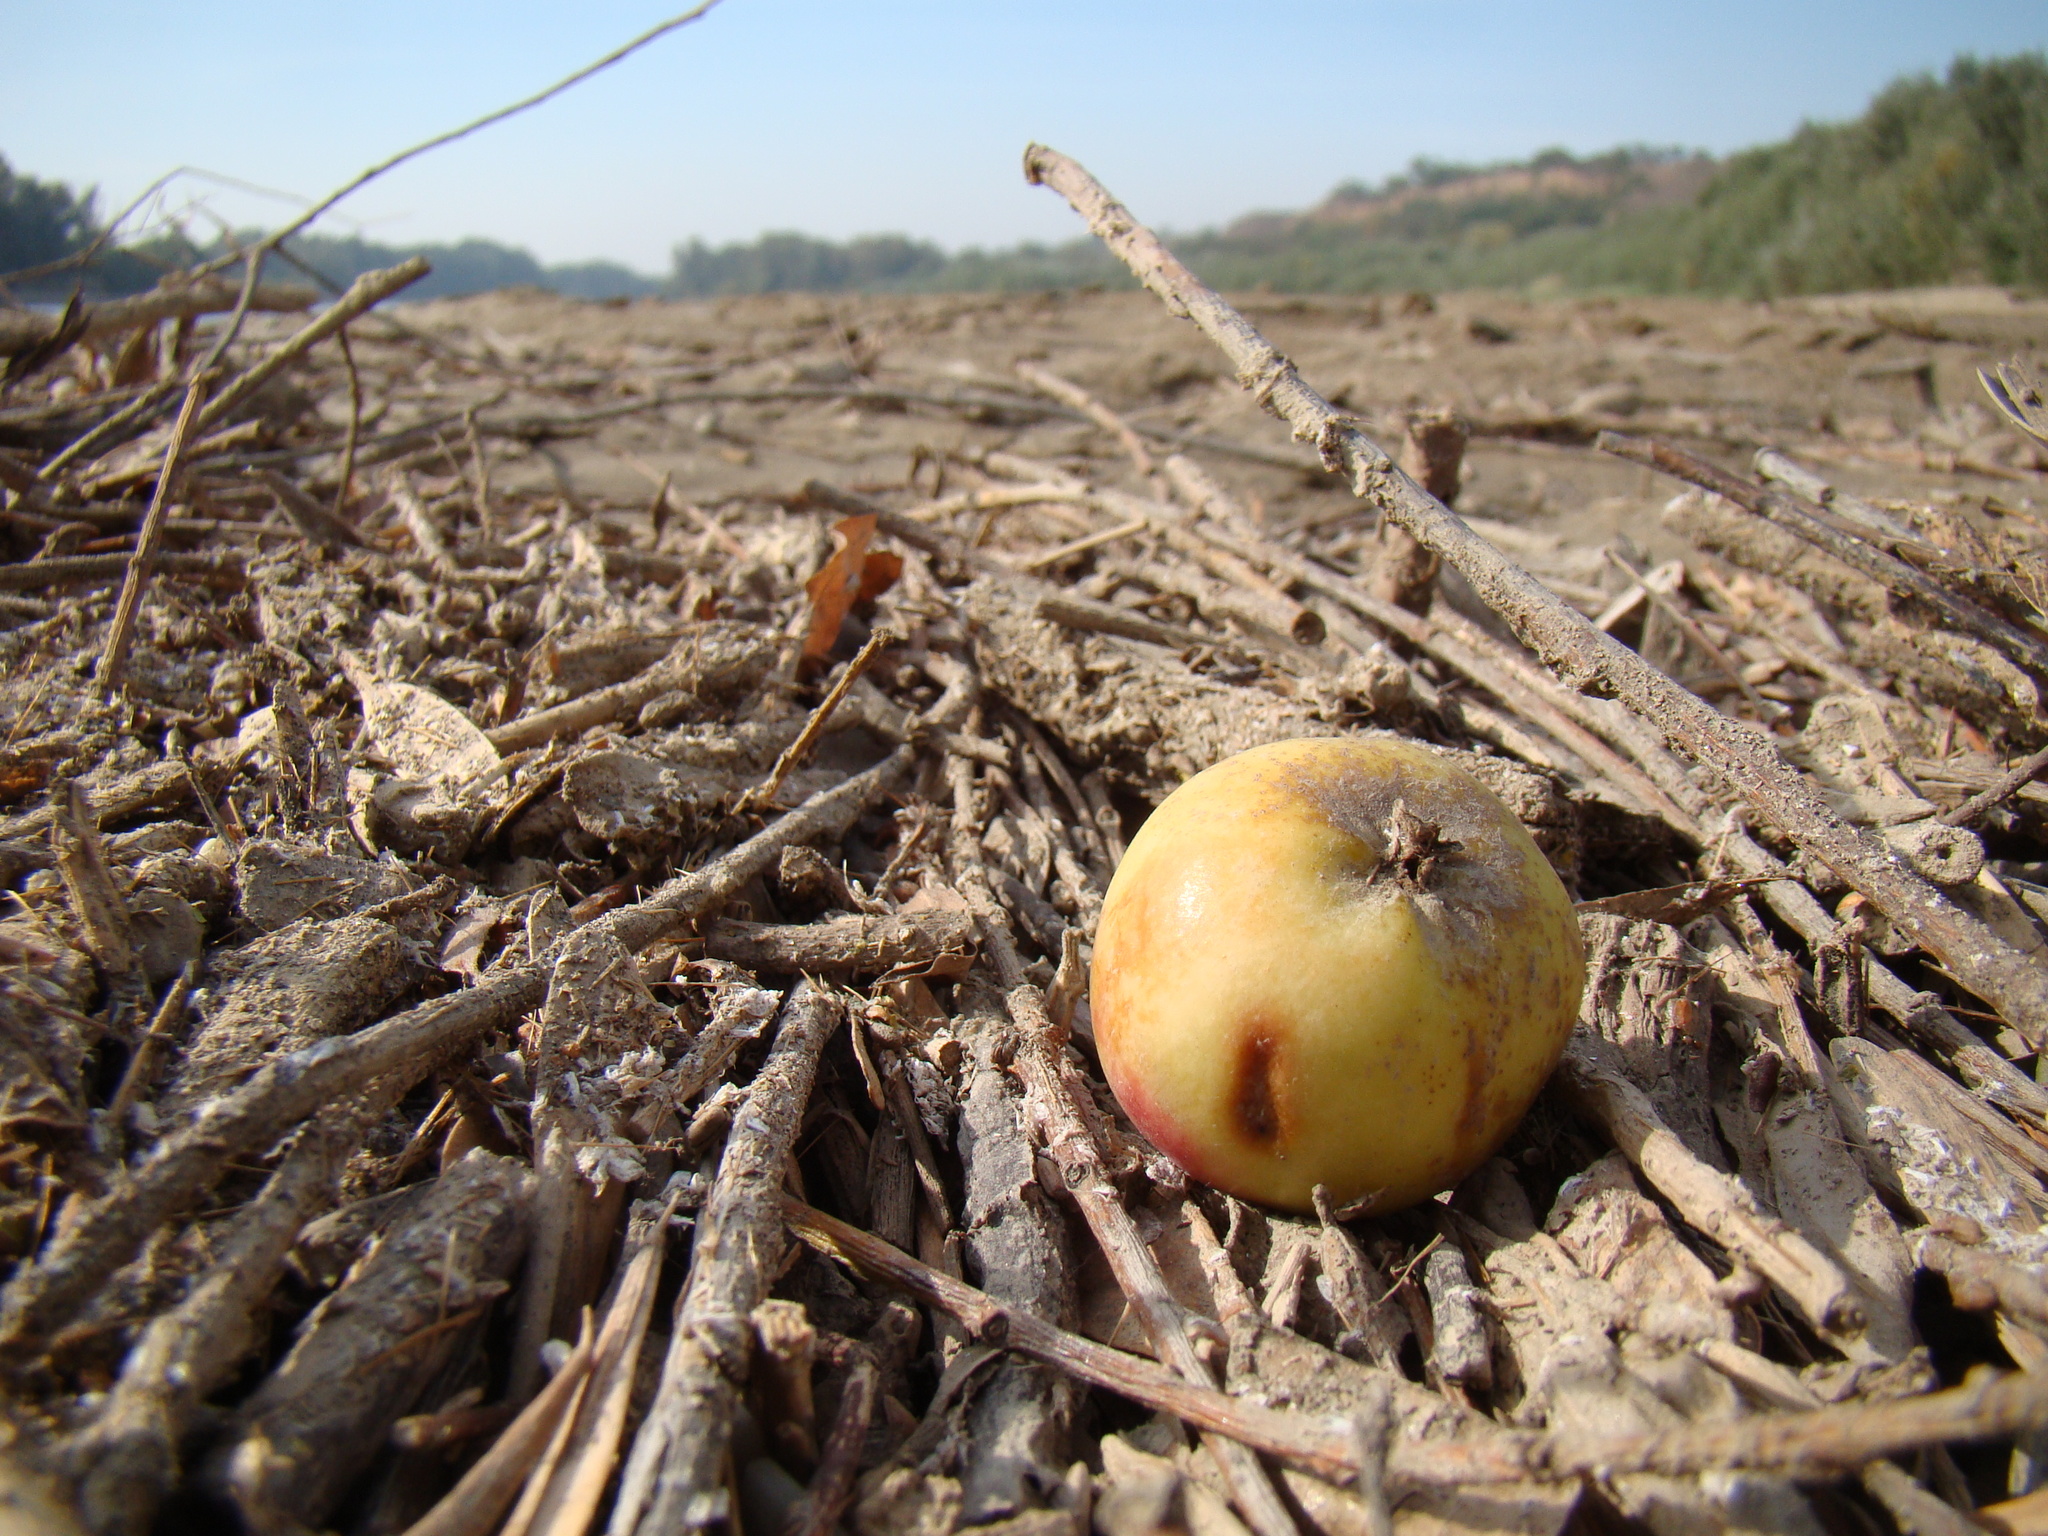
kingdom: Plantae
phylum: Tracheophyta
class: Magnoliopsida
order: Rosales
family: Rosaceae
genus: Malus
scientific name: Malus orientalis
